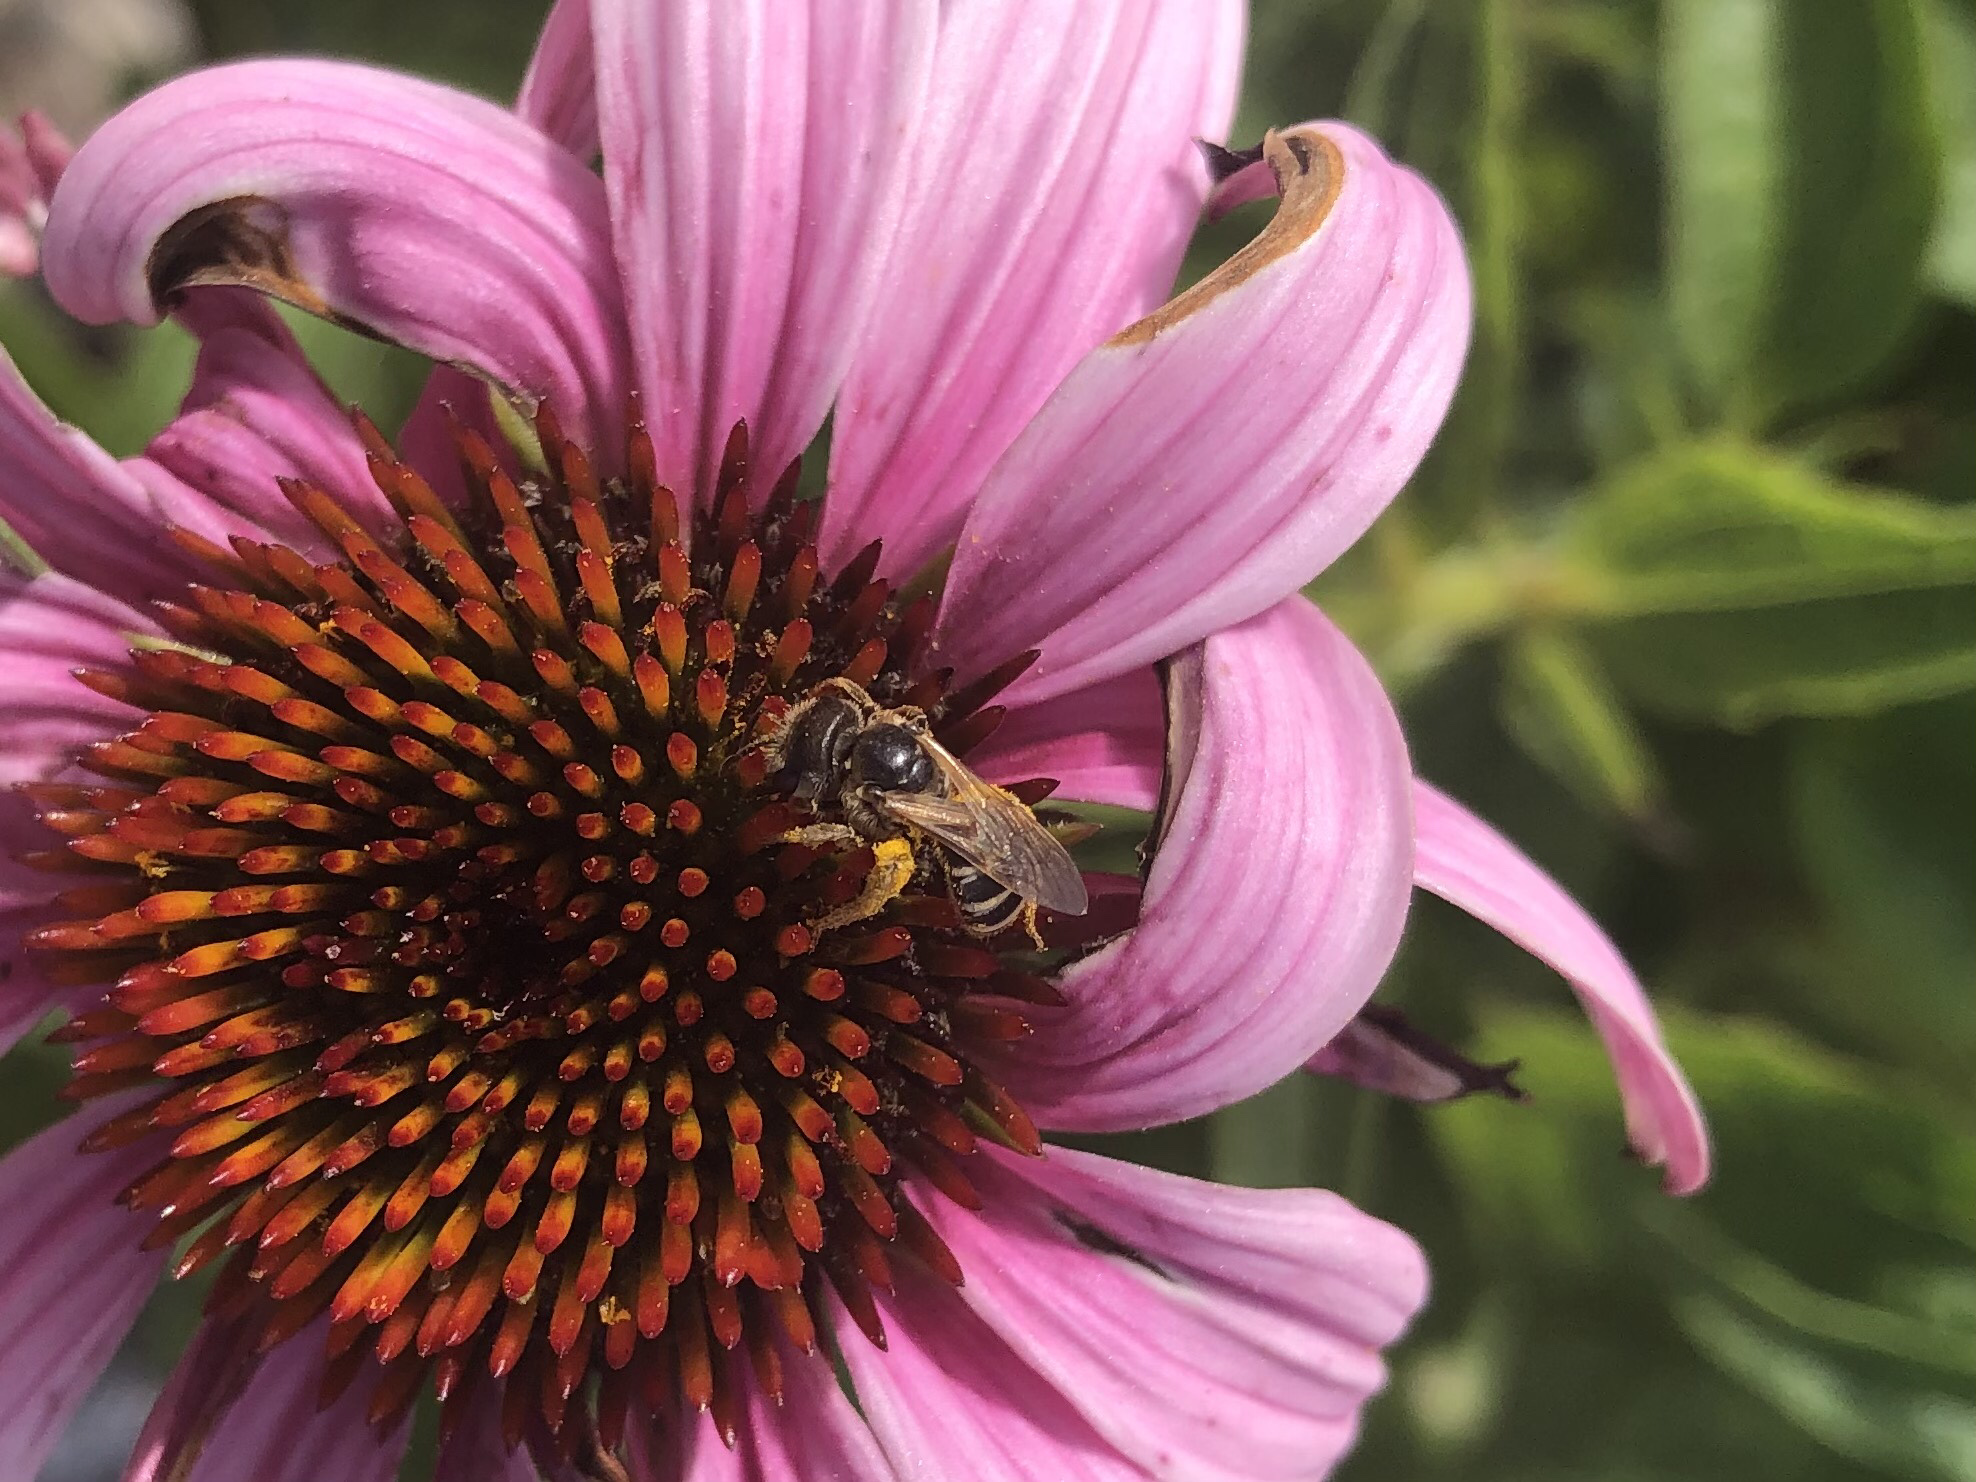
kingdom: Animalia
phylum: Arthropoda
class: Insecta
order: Hymenoptera
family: Halictidae
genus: Halictus
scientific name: Halictus ligatus
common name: Ligated furrow bee
